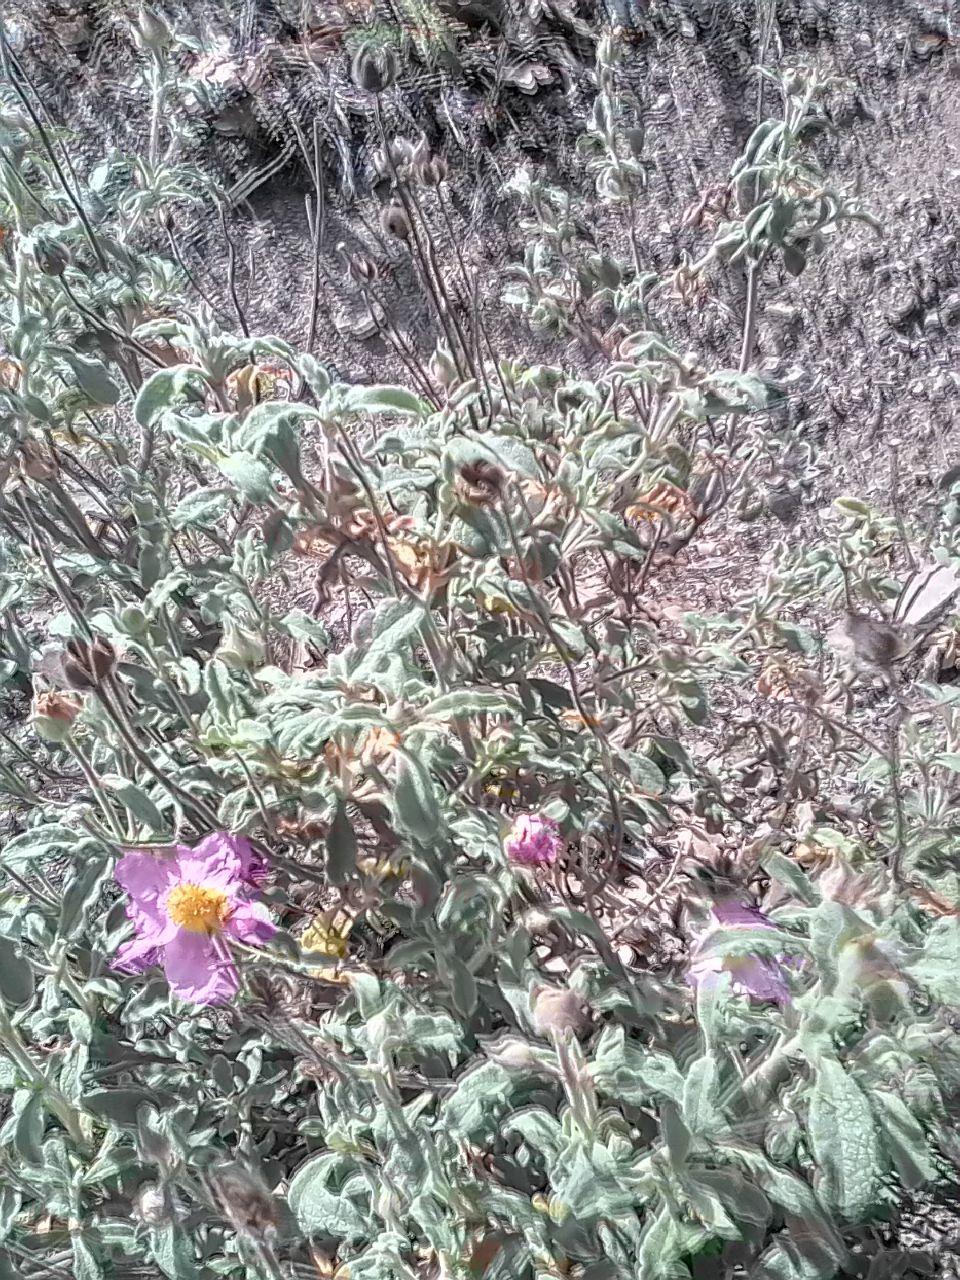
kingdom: Plantae
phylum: Tracheophyta
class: Magnoliopsida
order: Malvales
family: Cistaceae
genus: Cistus
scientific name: Cistus tauricus
